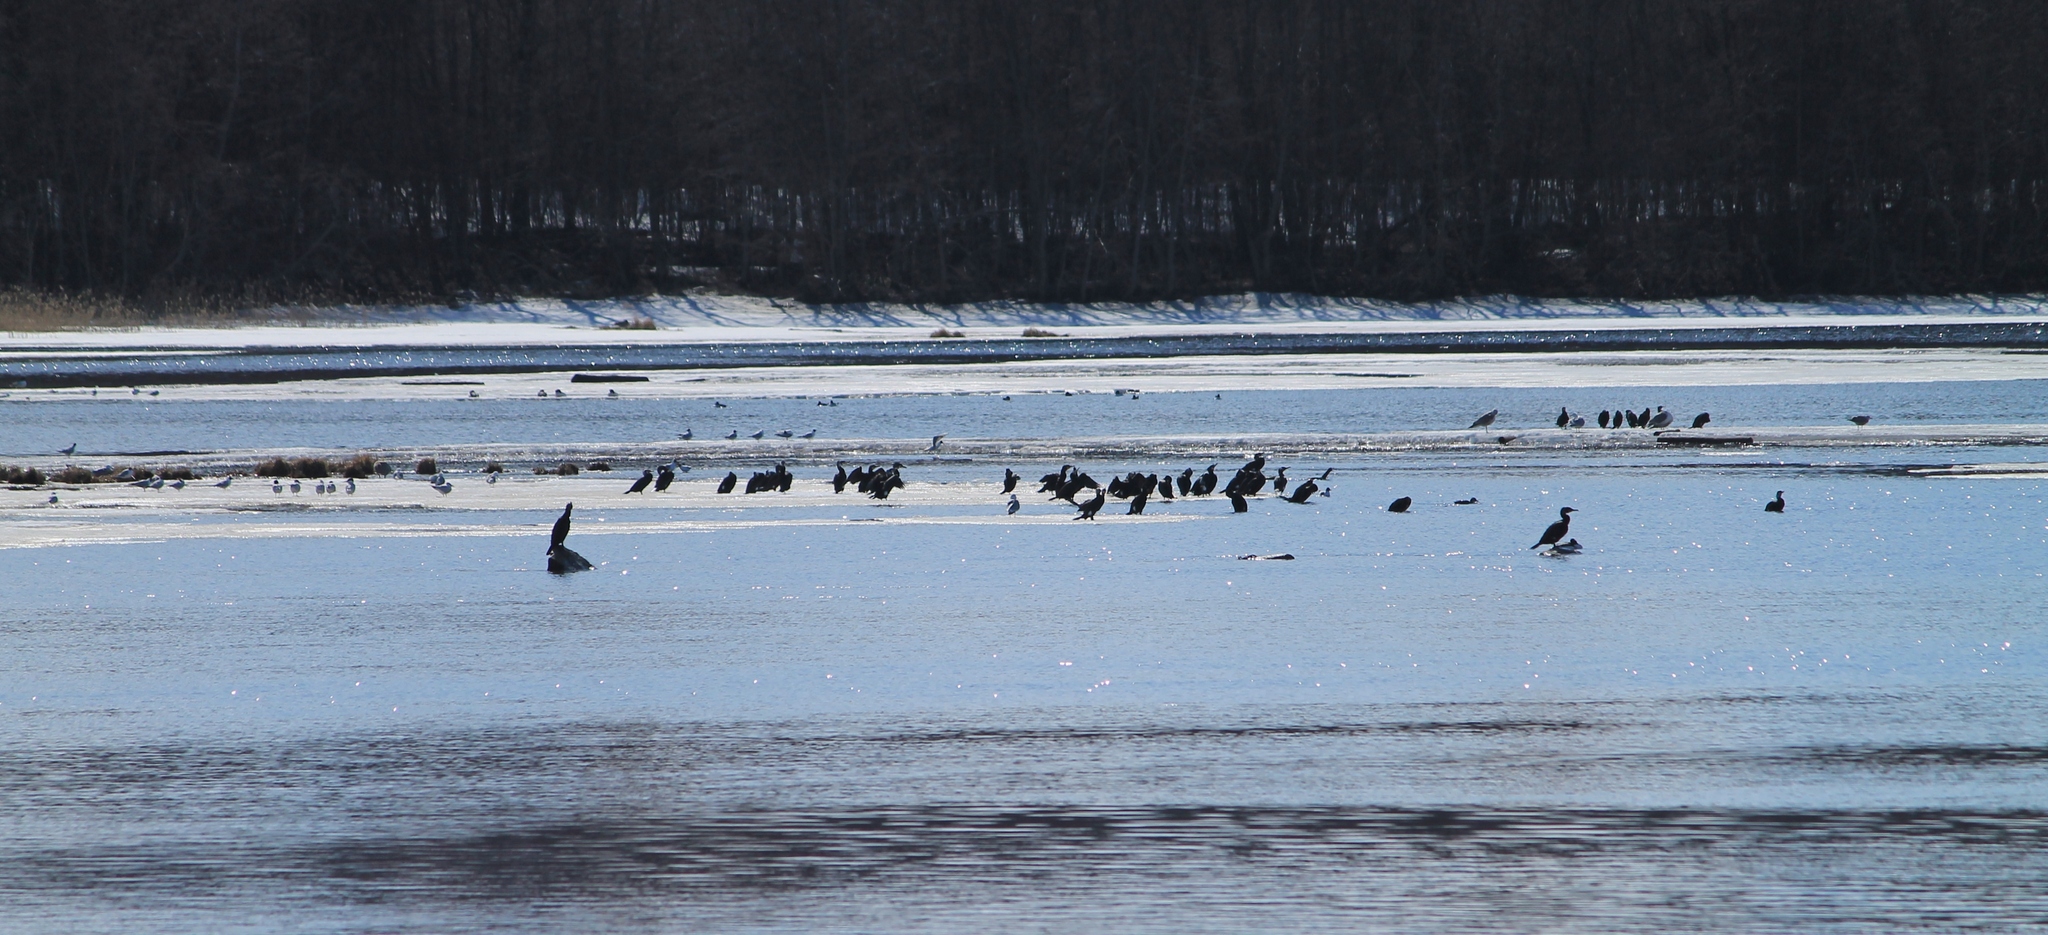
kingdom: Animalia
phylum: Chordata
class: Aves
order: Suliformes
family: Phalacrocoracidae
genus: Phalacrocorax
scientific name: Phalacrocorax carbo
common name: Great cormorant
